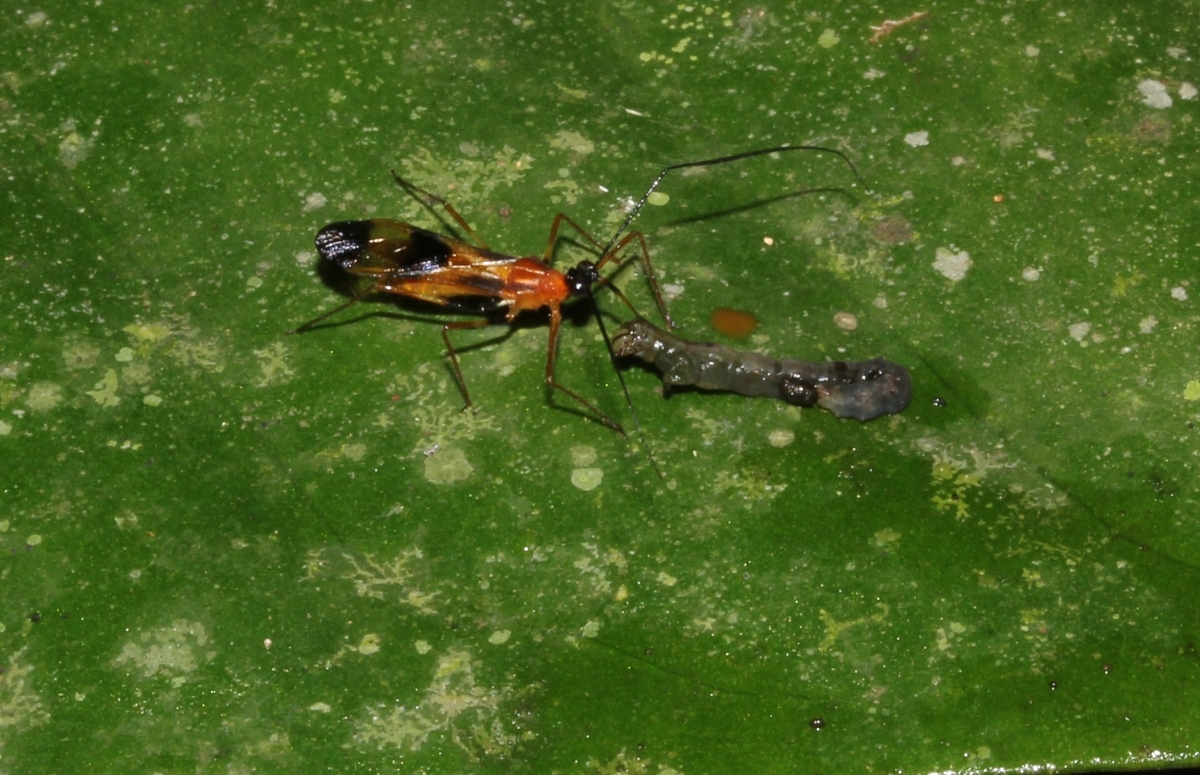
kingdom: Animalia
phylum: Arthropoda
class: Insecta
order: Hemiptera
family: Reduviidae
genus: Neotropiconyttus
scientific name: Neotropiconyttus
